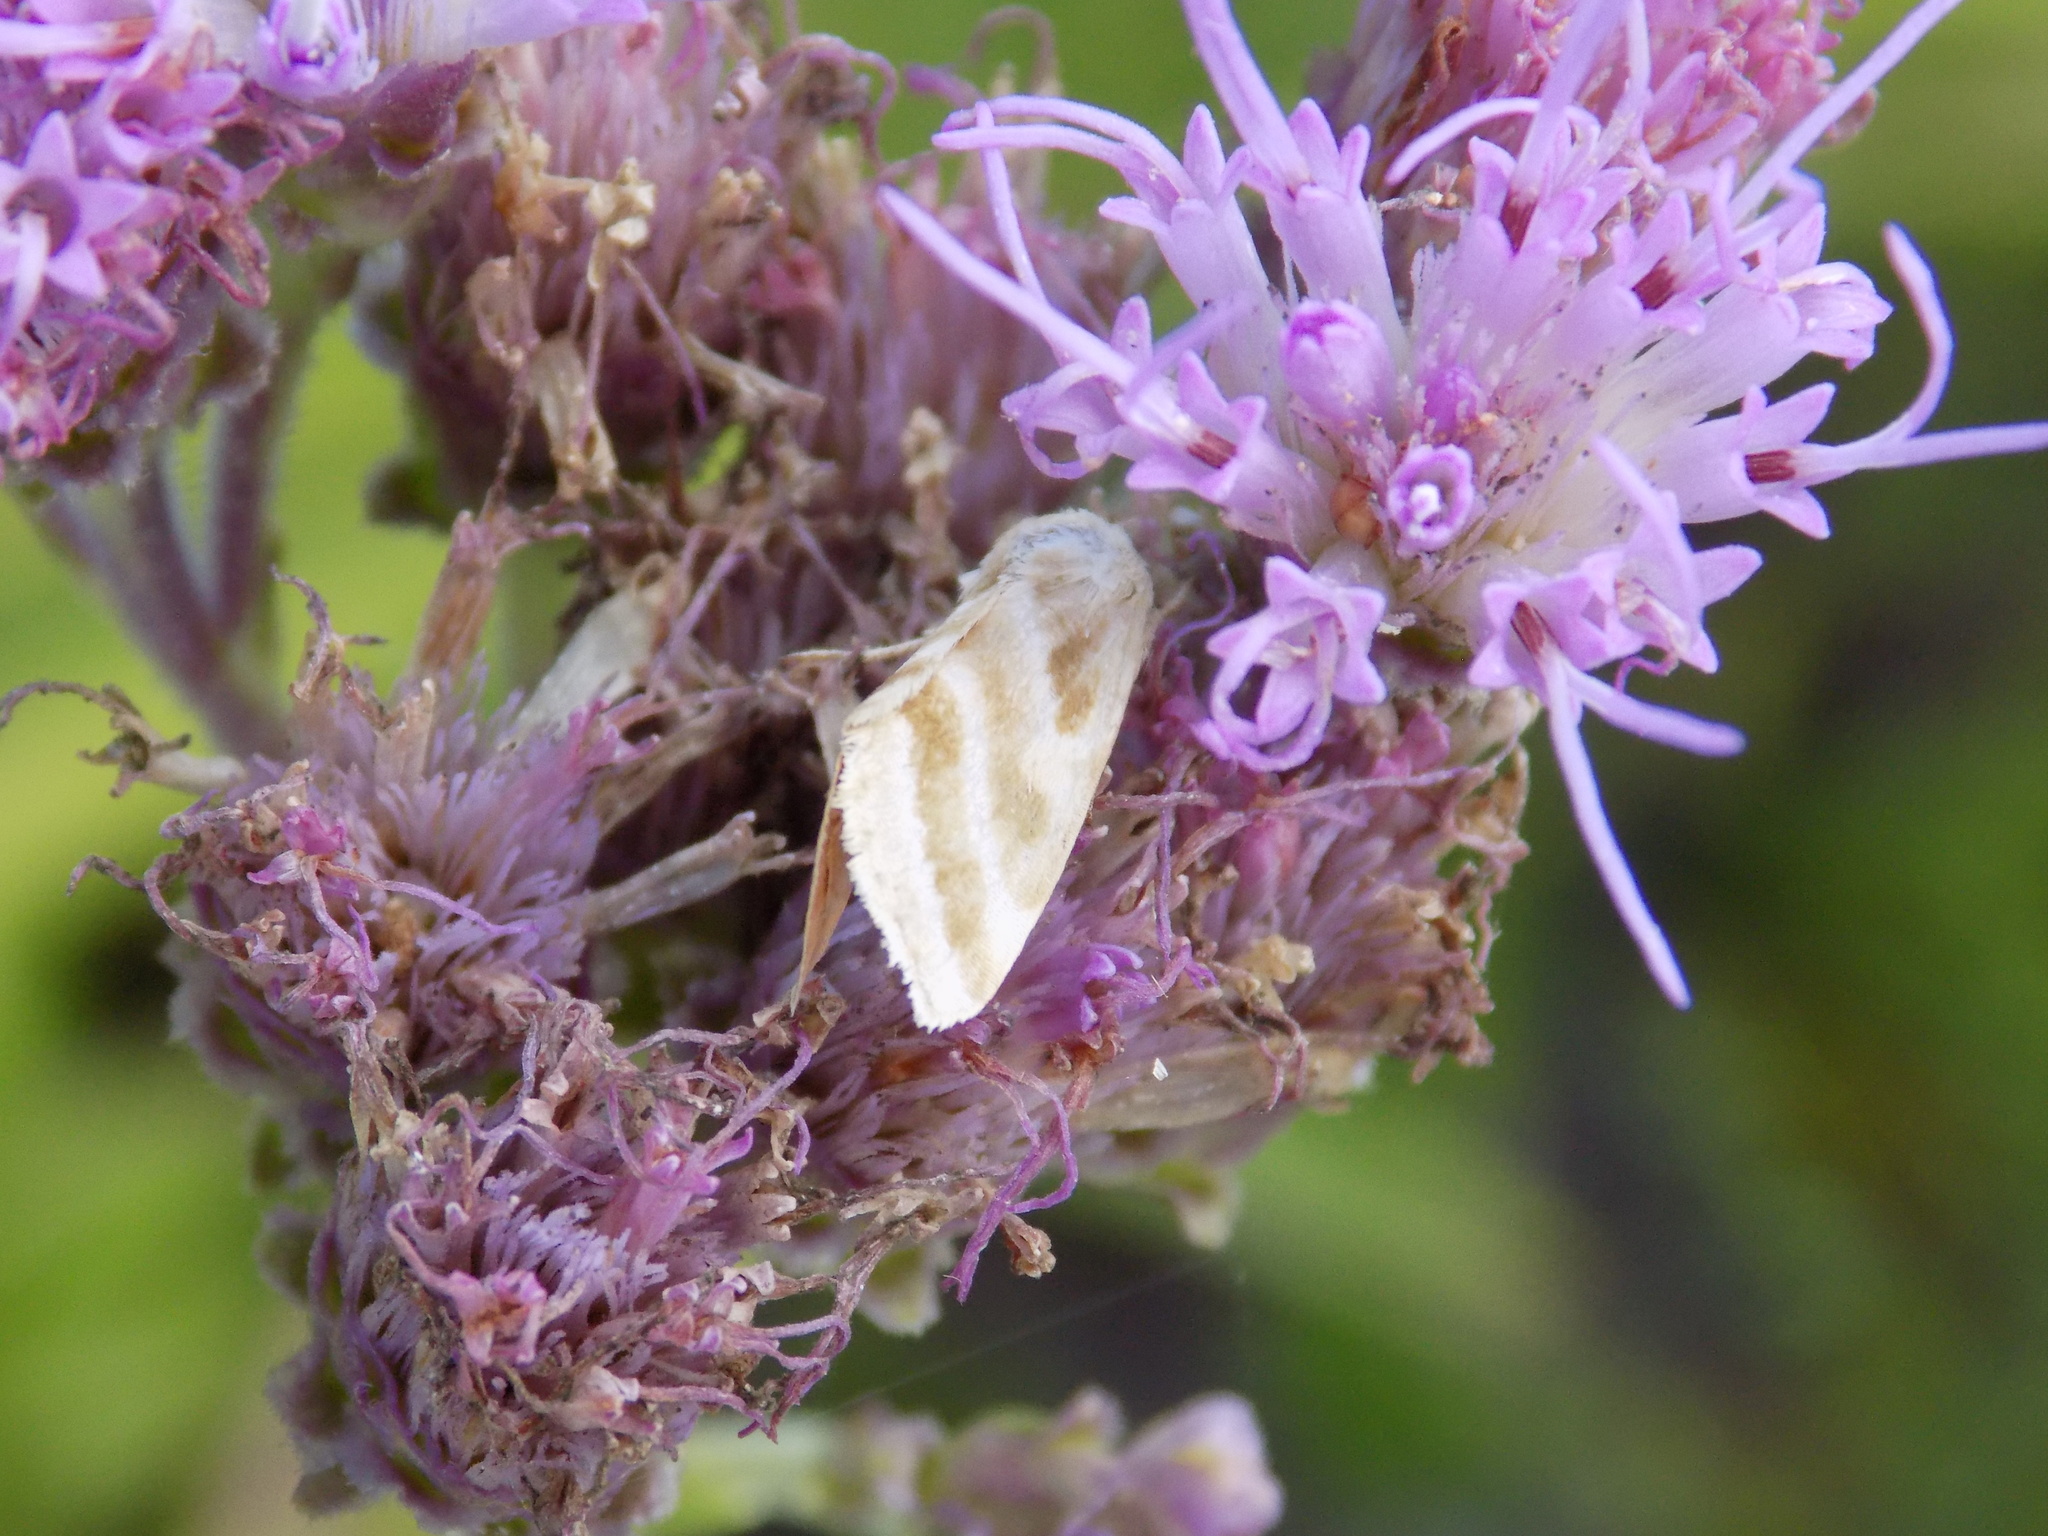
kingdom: Animalia
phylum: Arthropoda
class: Insecta
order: Lepidoptera
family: Noctuidae
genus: Schinia
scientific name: Schinia trifascia
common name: Three-lined flower moth
